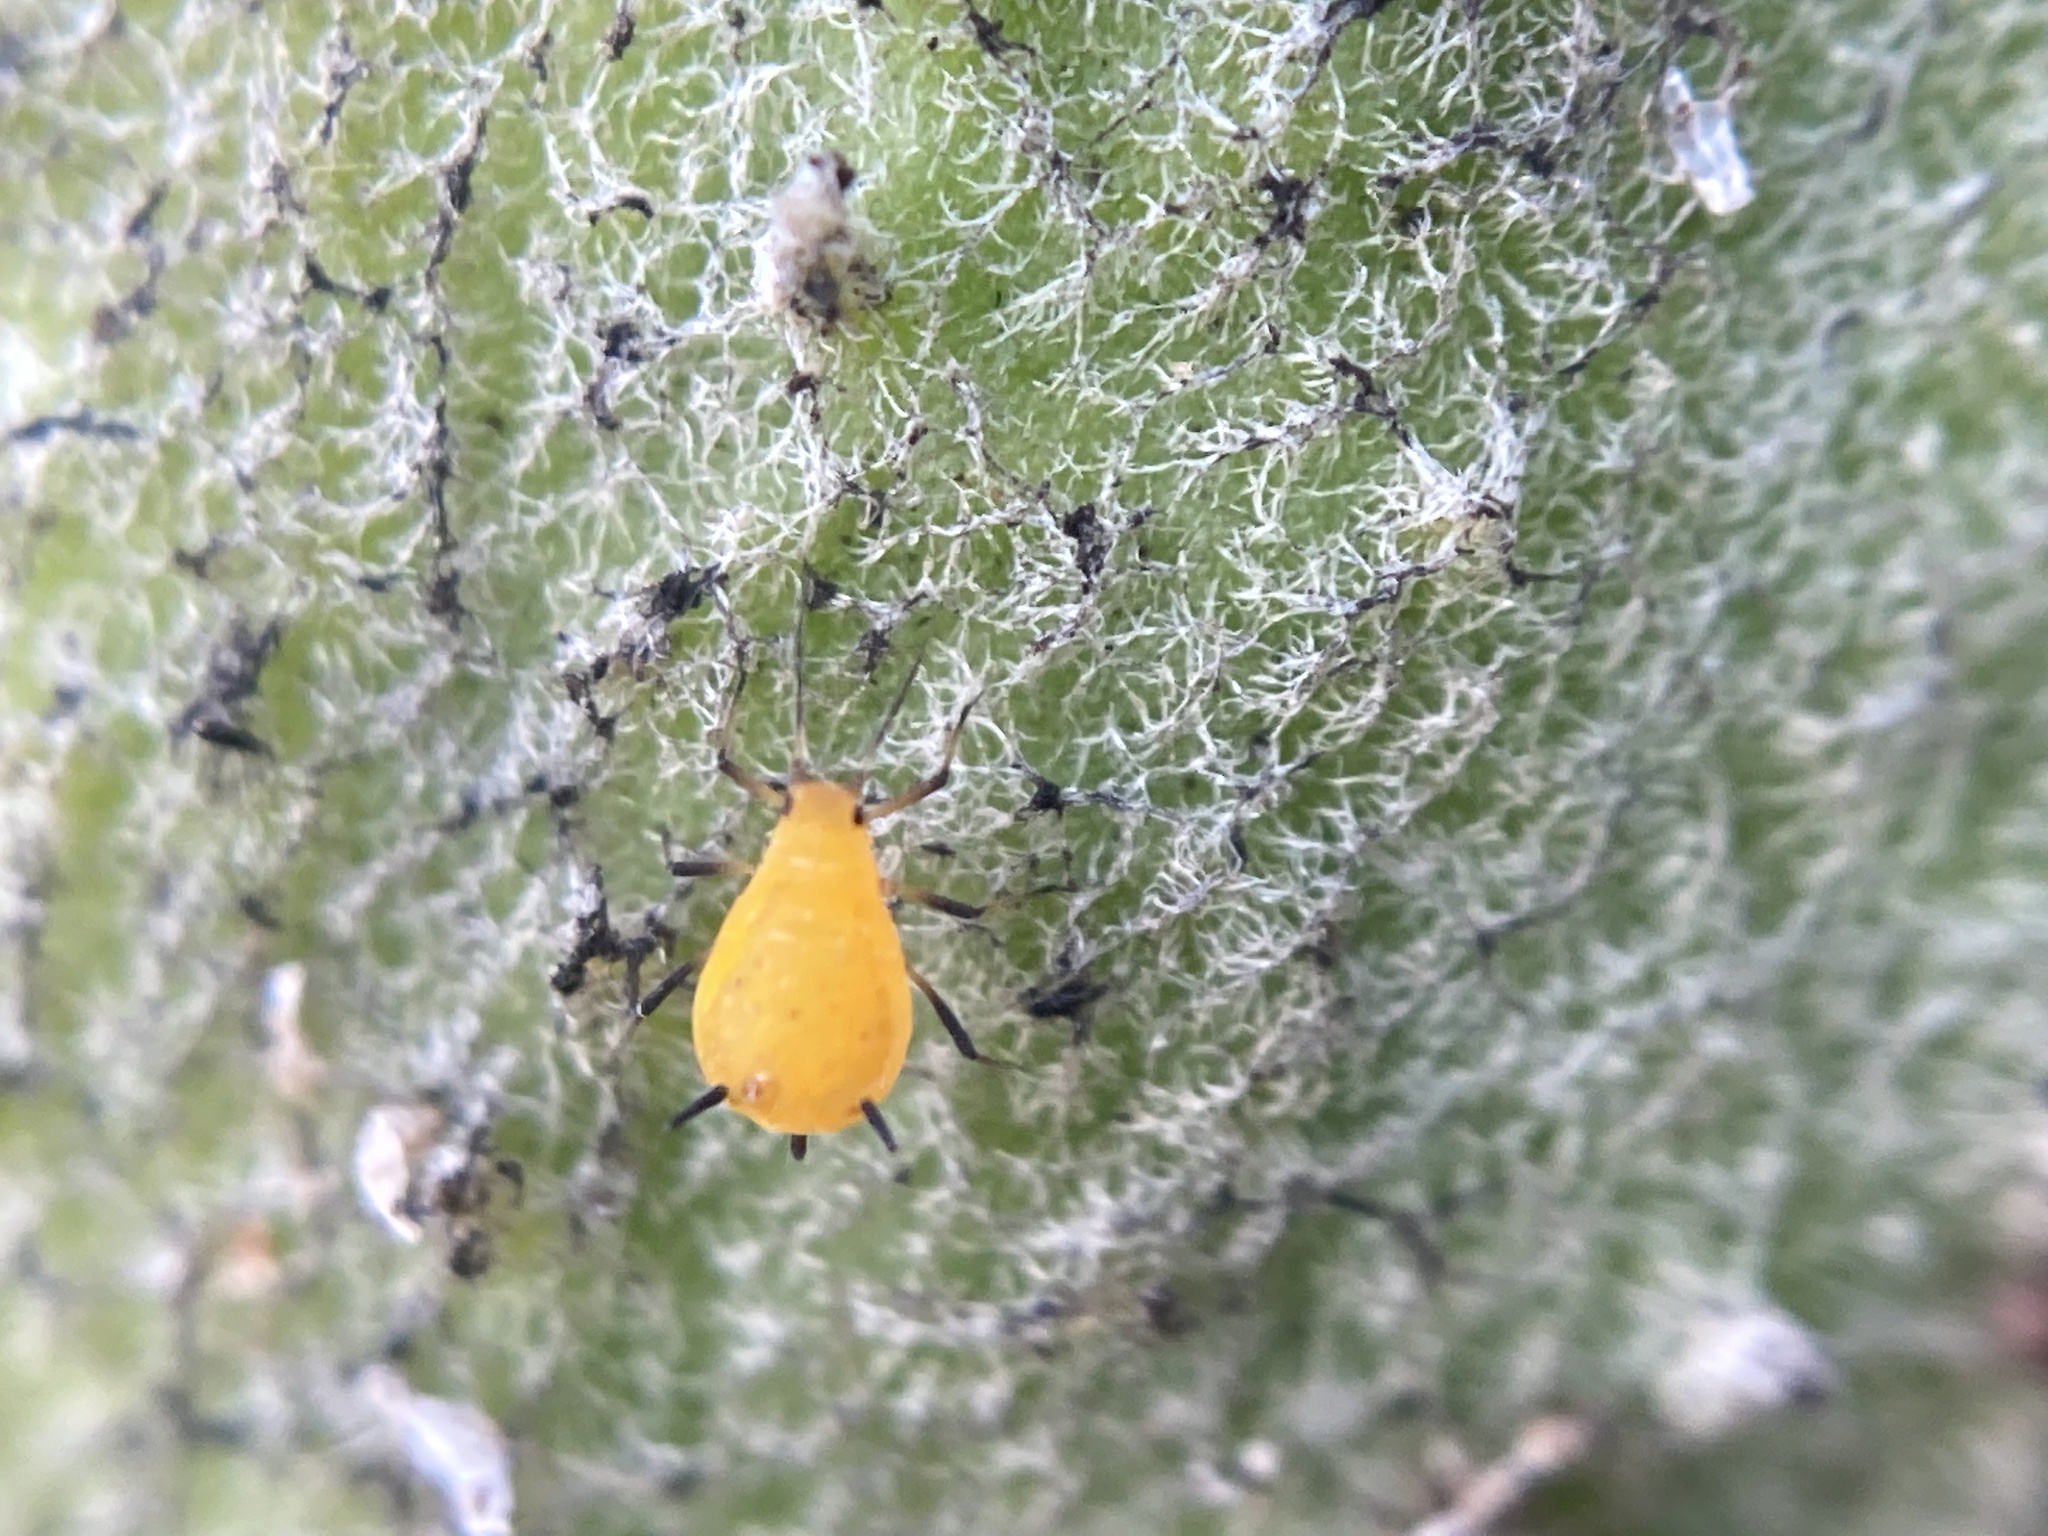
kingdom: Animalia
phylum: Arthropoda
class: Insecta
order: Hemiptera
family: Aphididae
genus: Aphis
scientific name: Aphis nerii
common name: Oleander aphid
